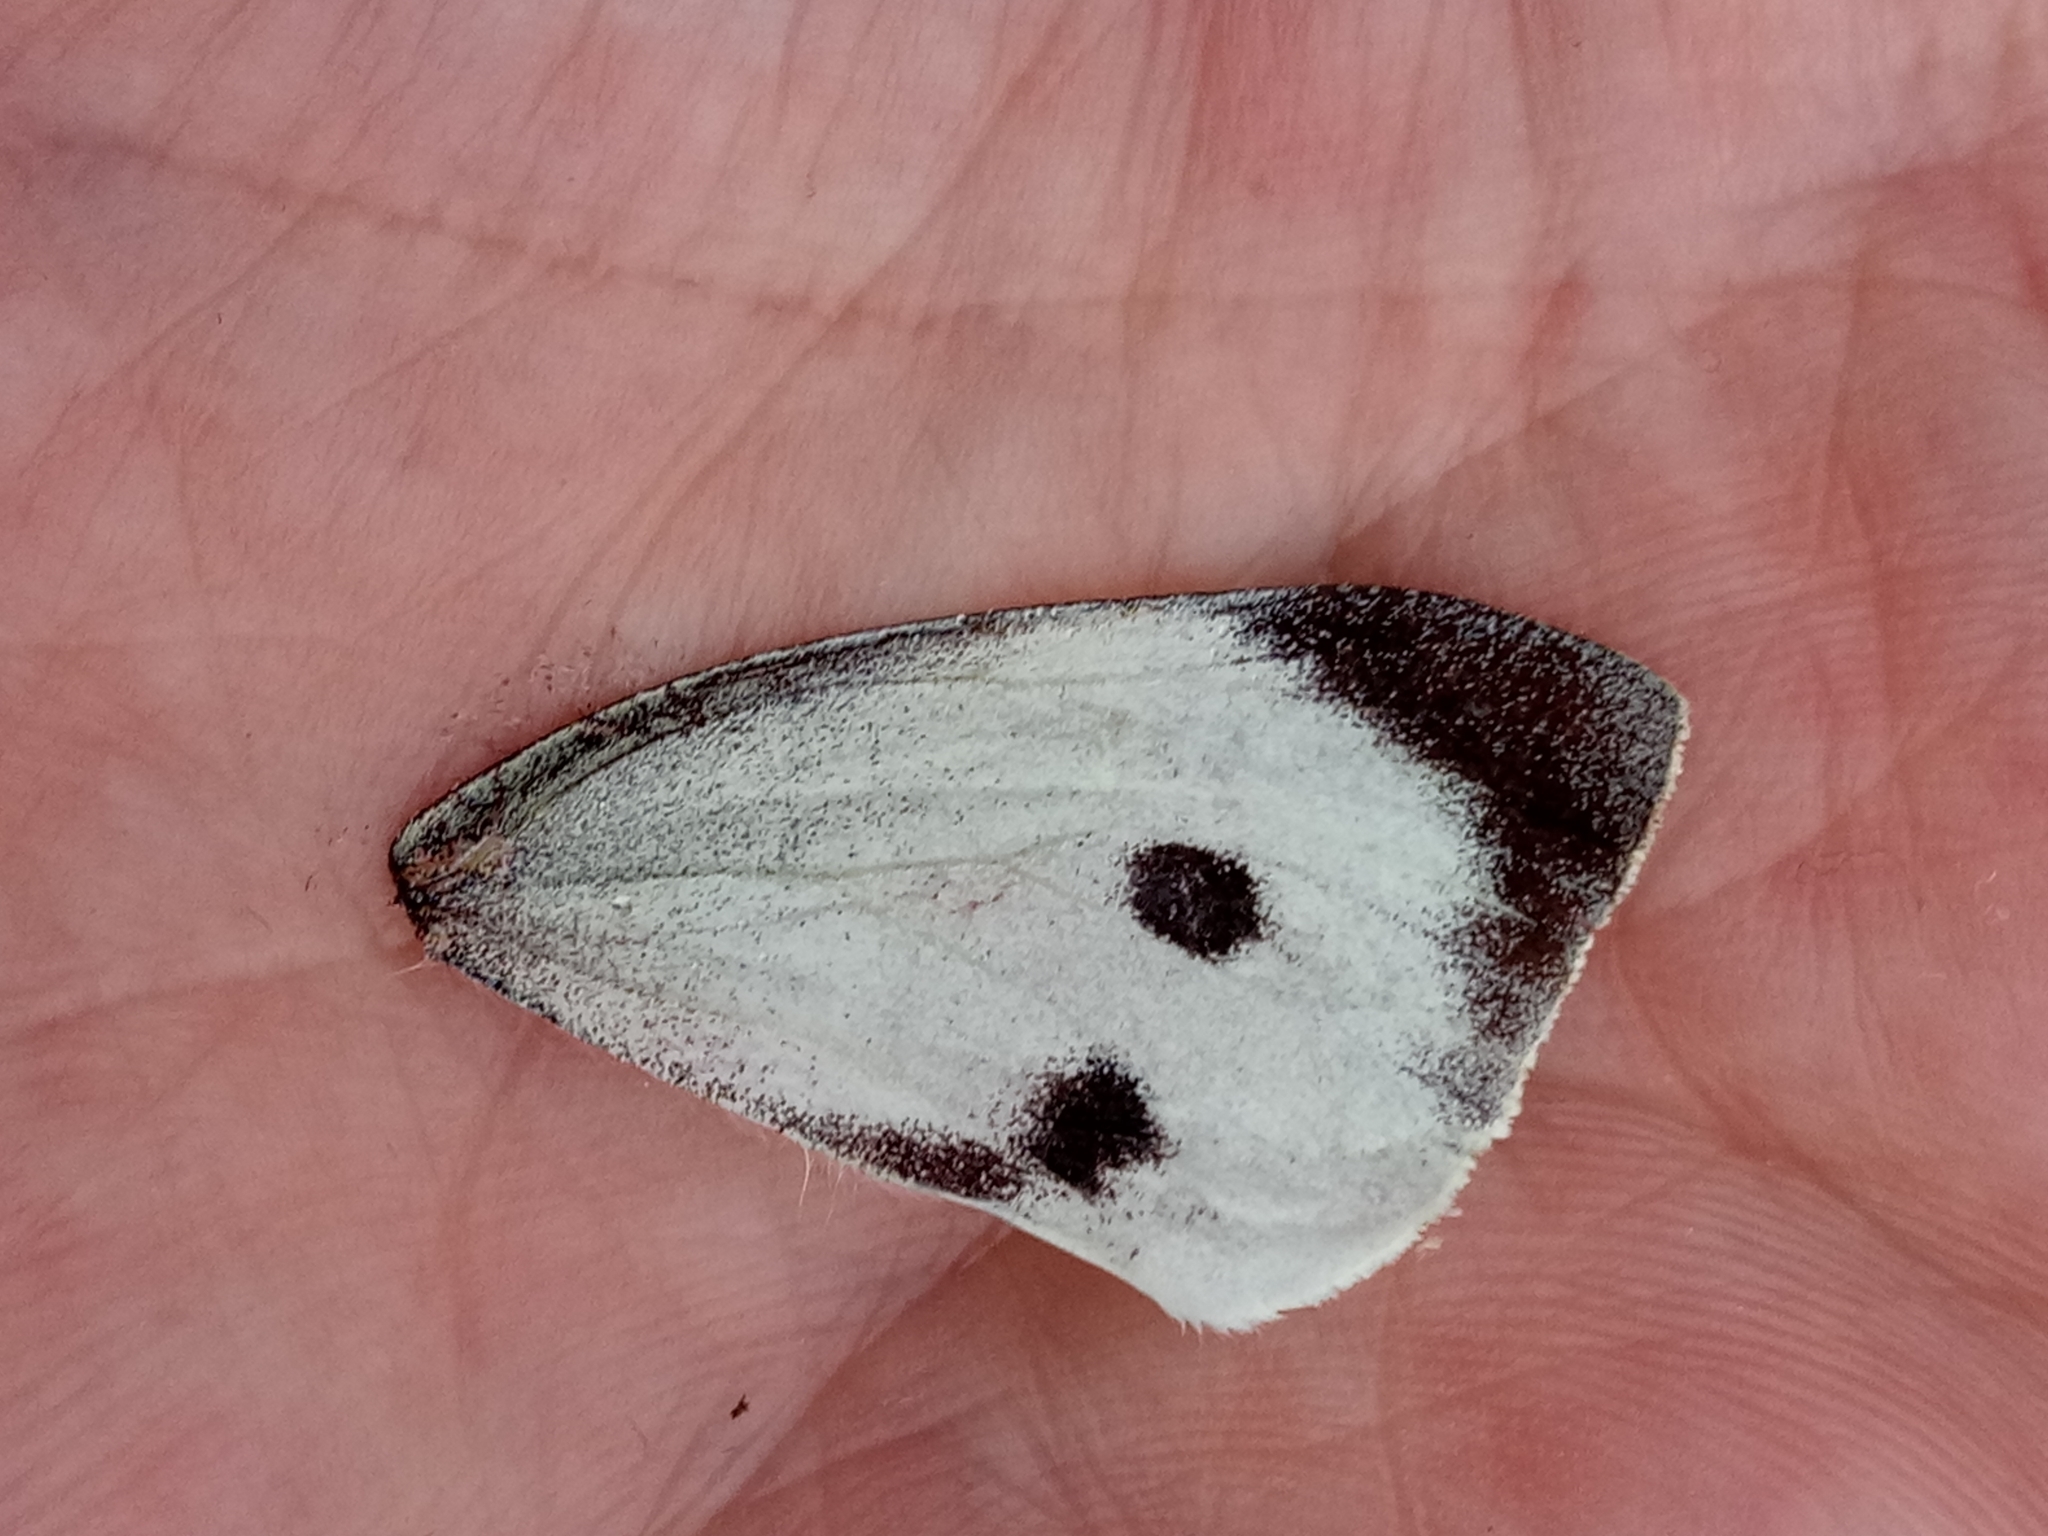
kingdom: Animalia
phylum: Arthropoda
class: Insecta
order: Lepidoptera
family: Pieridae
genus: Pieris
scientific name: Pieris brassicae
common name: Large white
